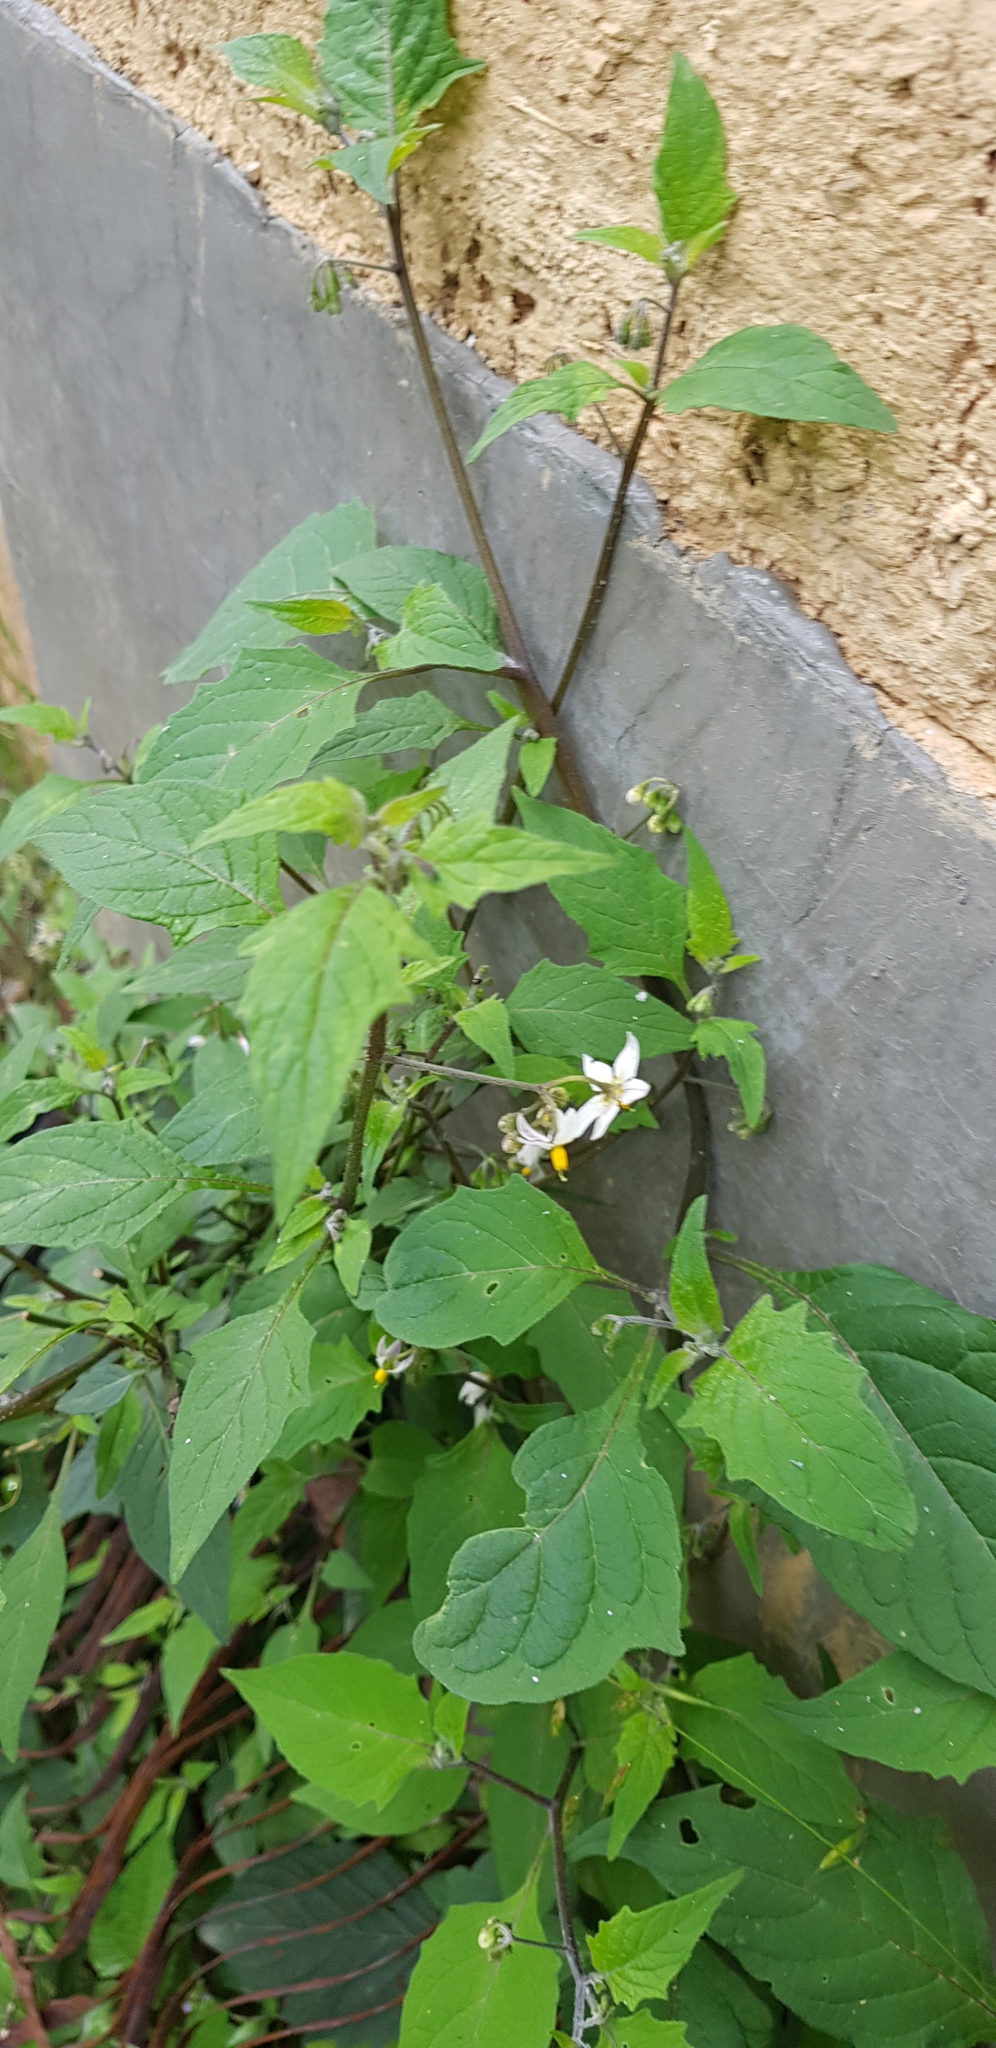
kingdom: Plantae
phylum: Tracheophyta
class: Magnoliopsida
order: Solanales
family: Solanaceae
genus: Solanum
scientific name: Solanum americanum
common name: American black nightshade
